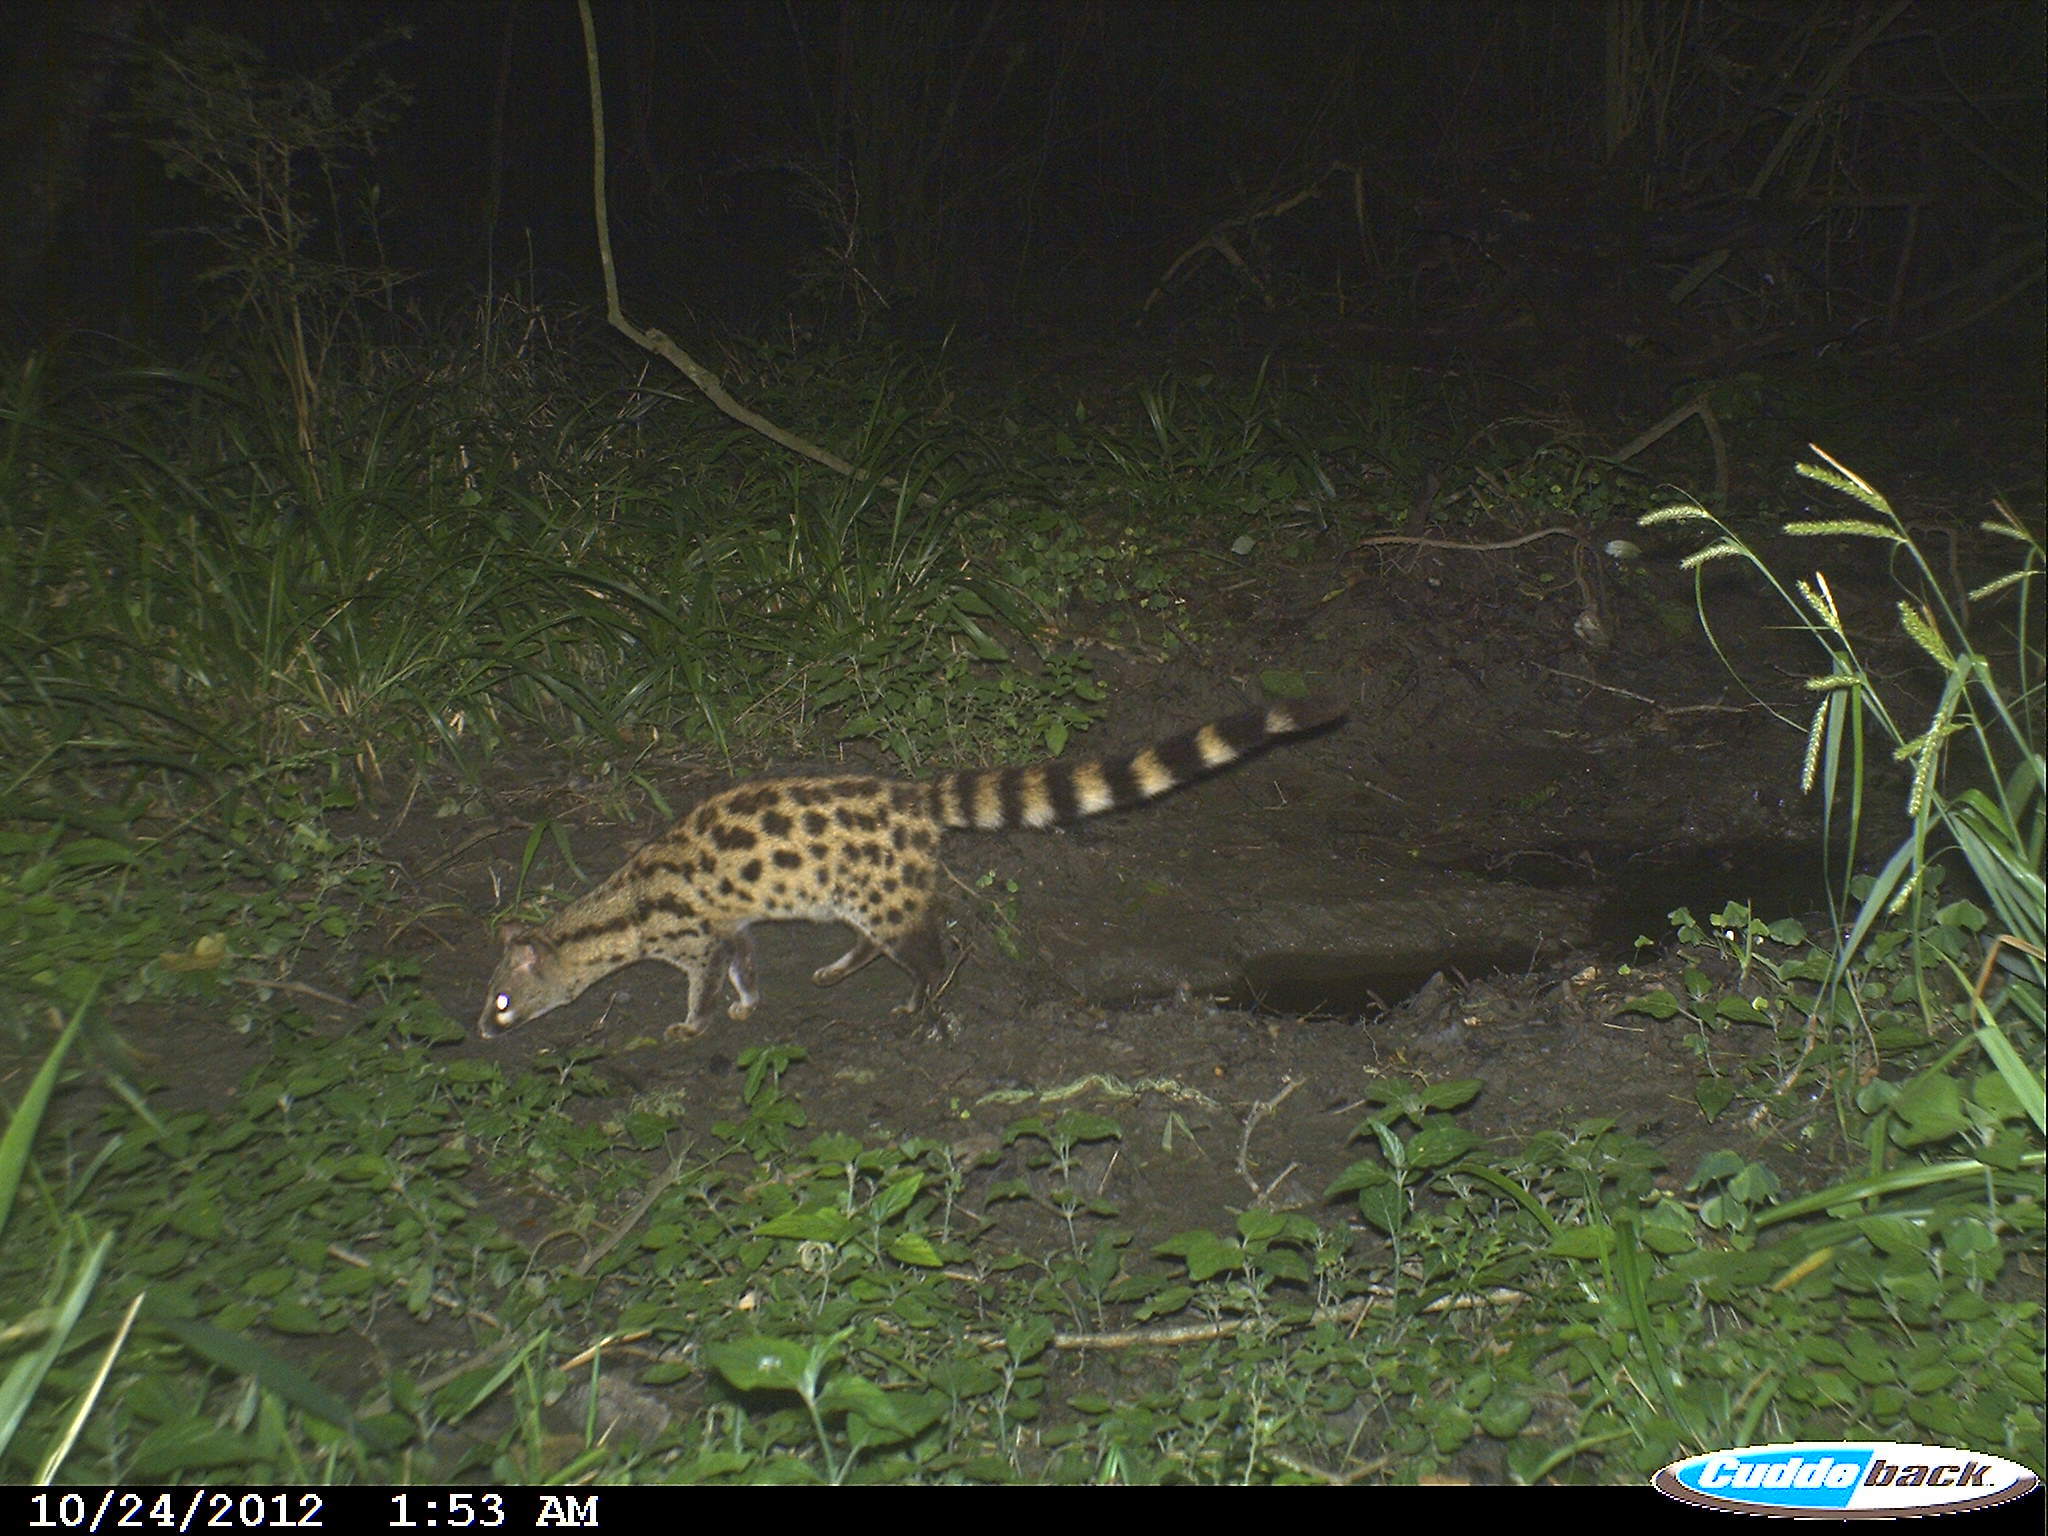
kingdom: Animalia
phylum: Chordata
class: Mammalia
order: Carnivora
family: Viverridae
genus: Genetta
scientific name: Genetta tigrina
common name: Cape genet
